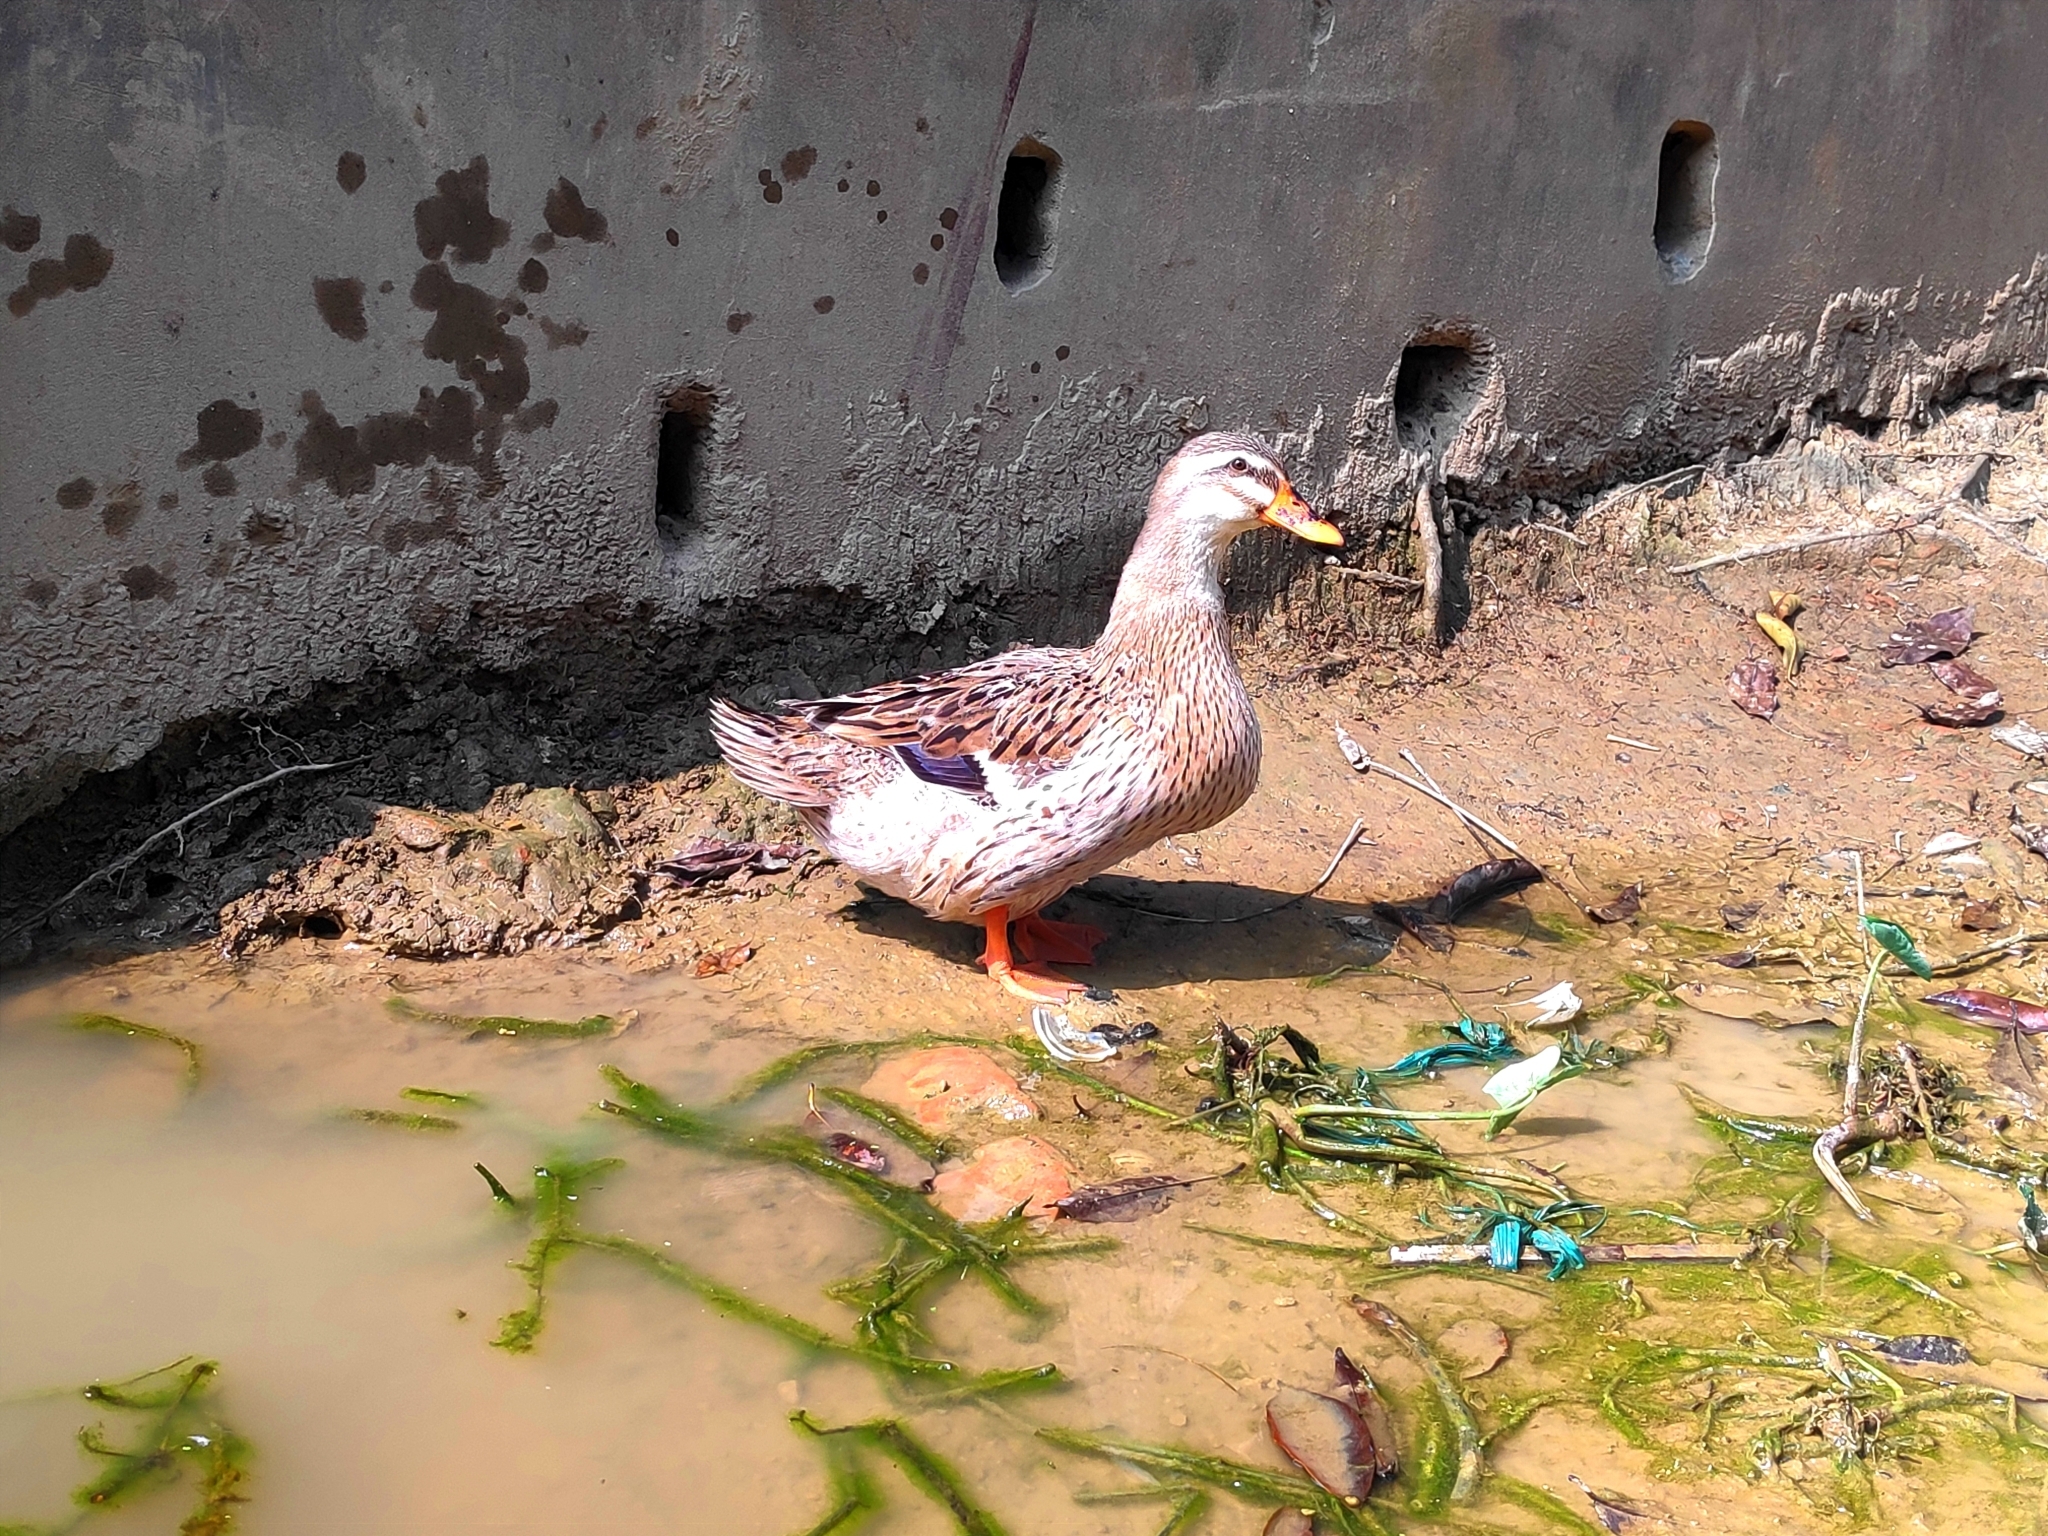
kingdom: Animalia
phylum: Chordata
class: Aves
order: Anseriformes
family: Anatidae
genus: Anas
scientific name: Anas platyrhynchos
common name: Mallard
